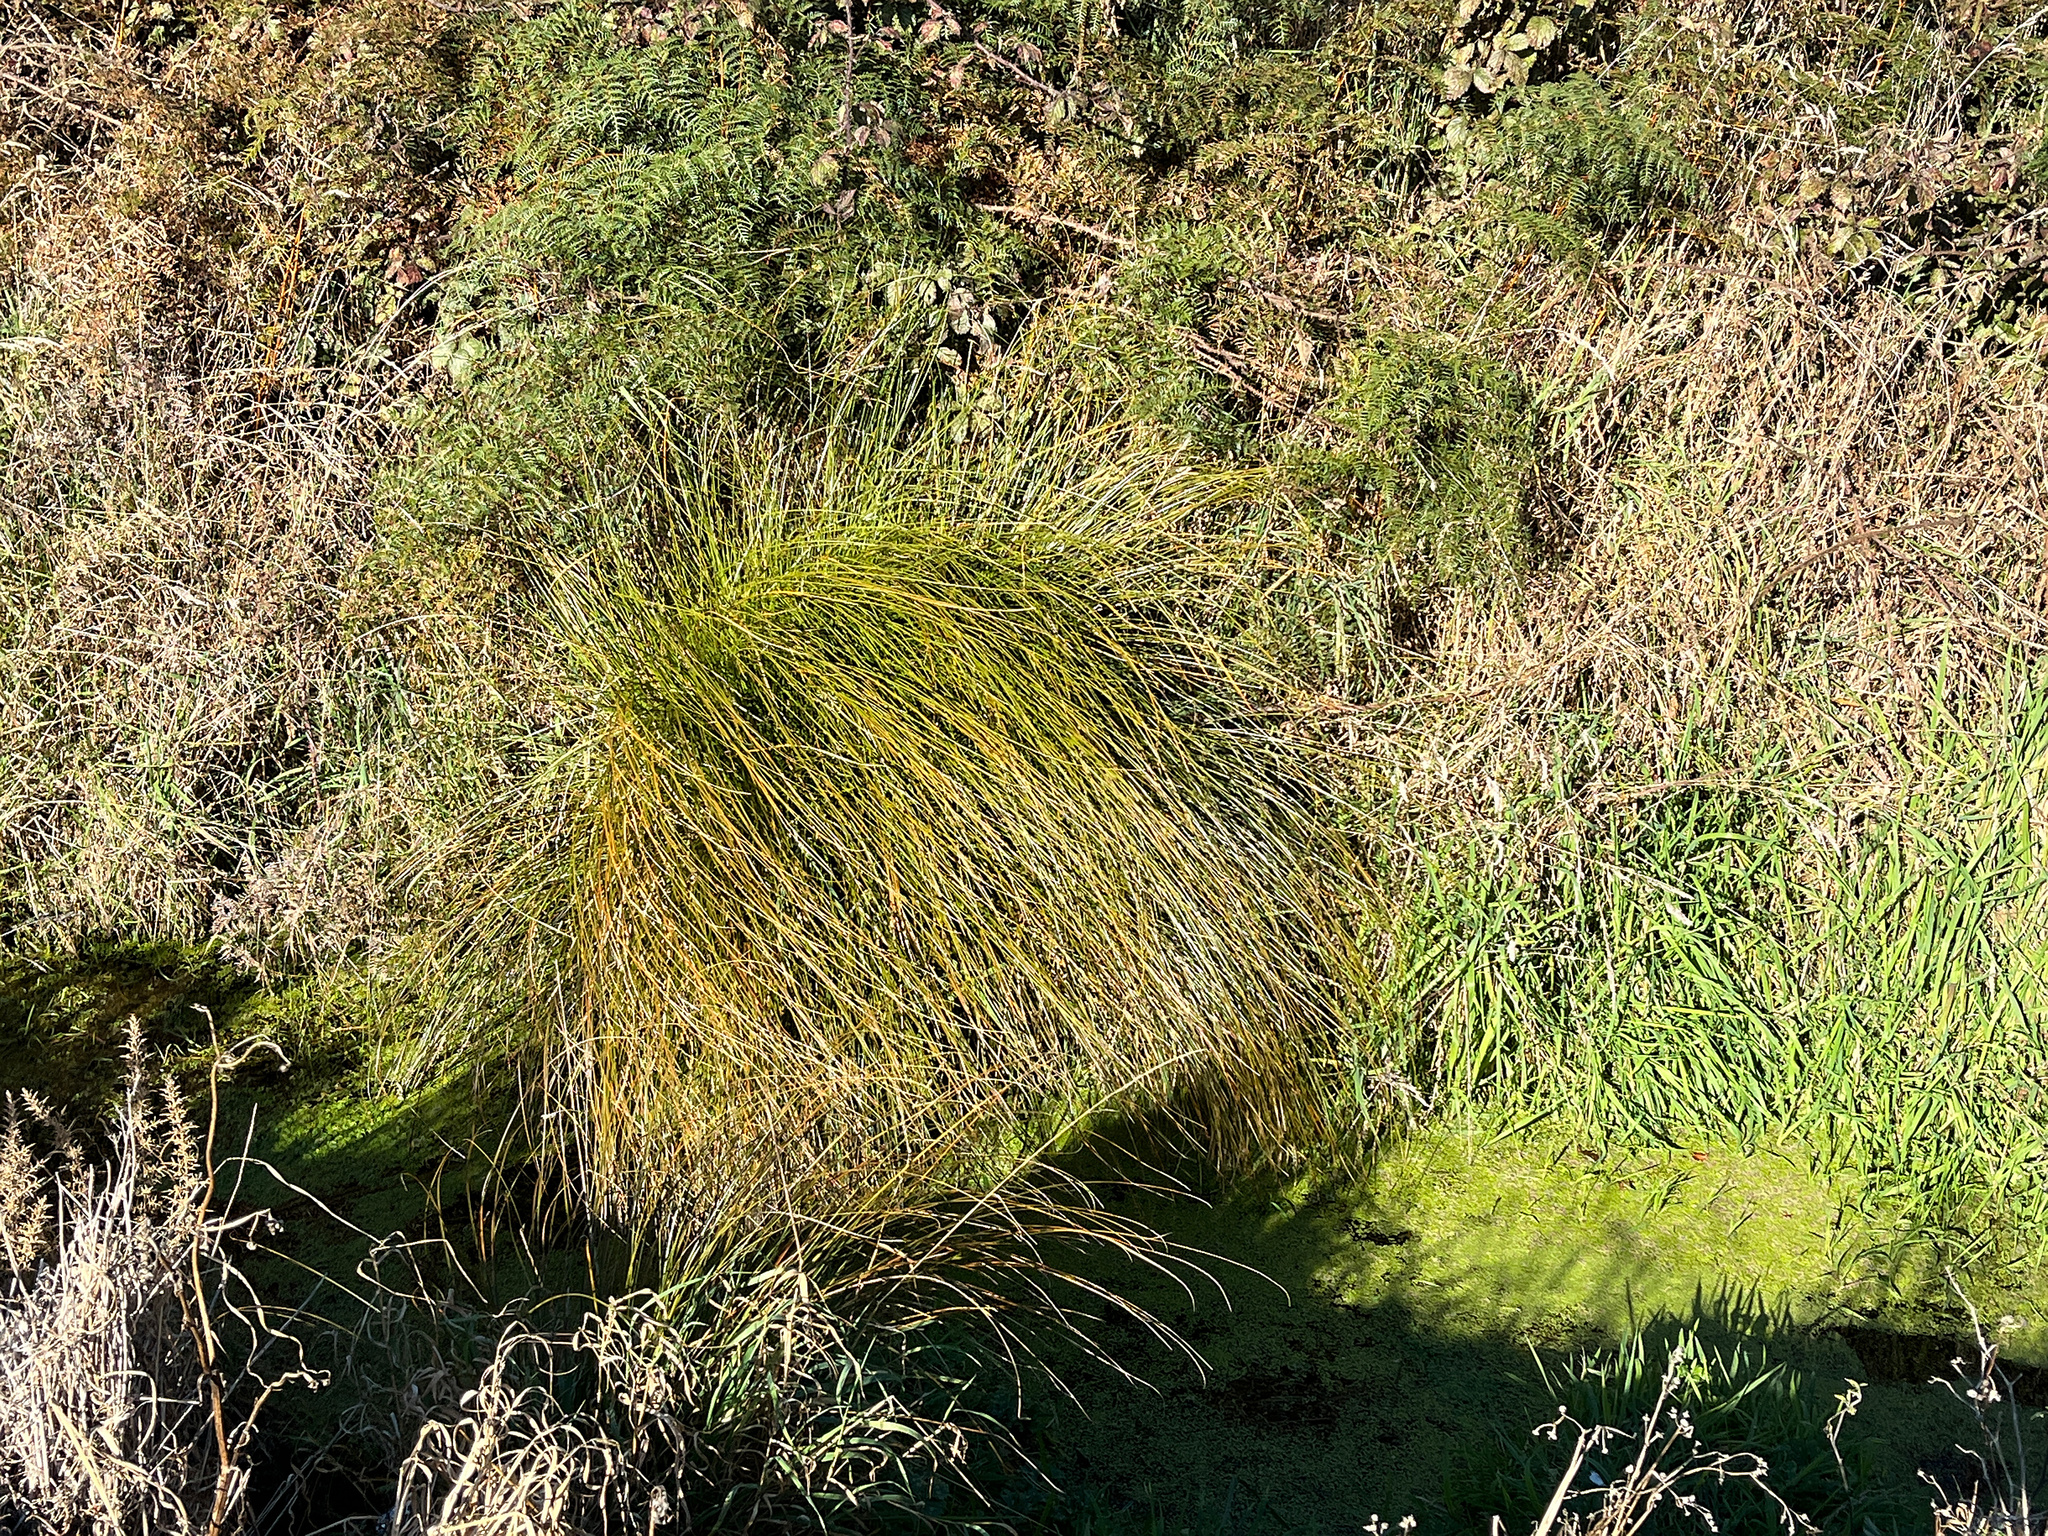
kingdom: Plantae
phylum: Tracheophyta
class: Liliopsida
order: Poales
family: Cyperaceae
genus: Carex
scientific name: Carex secta
